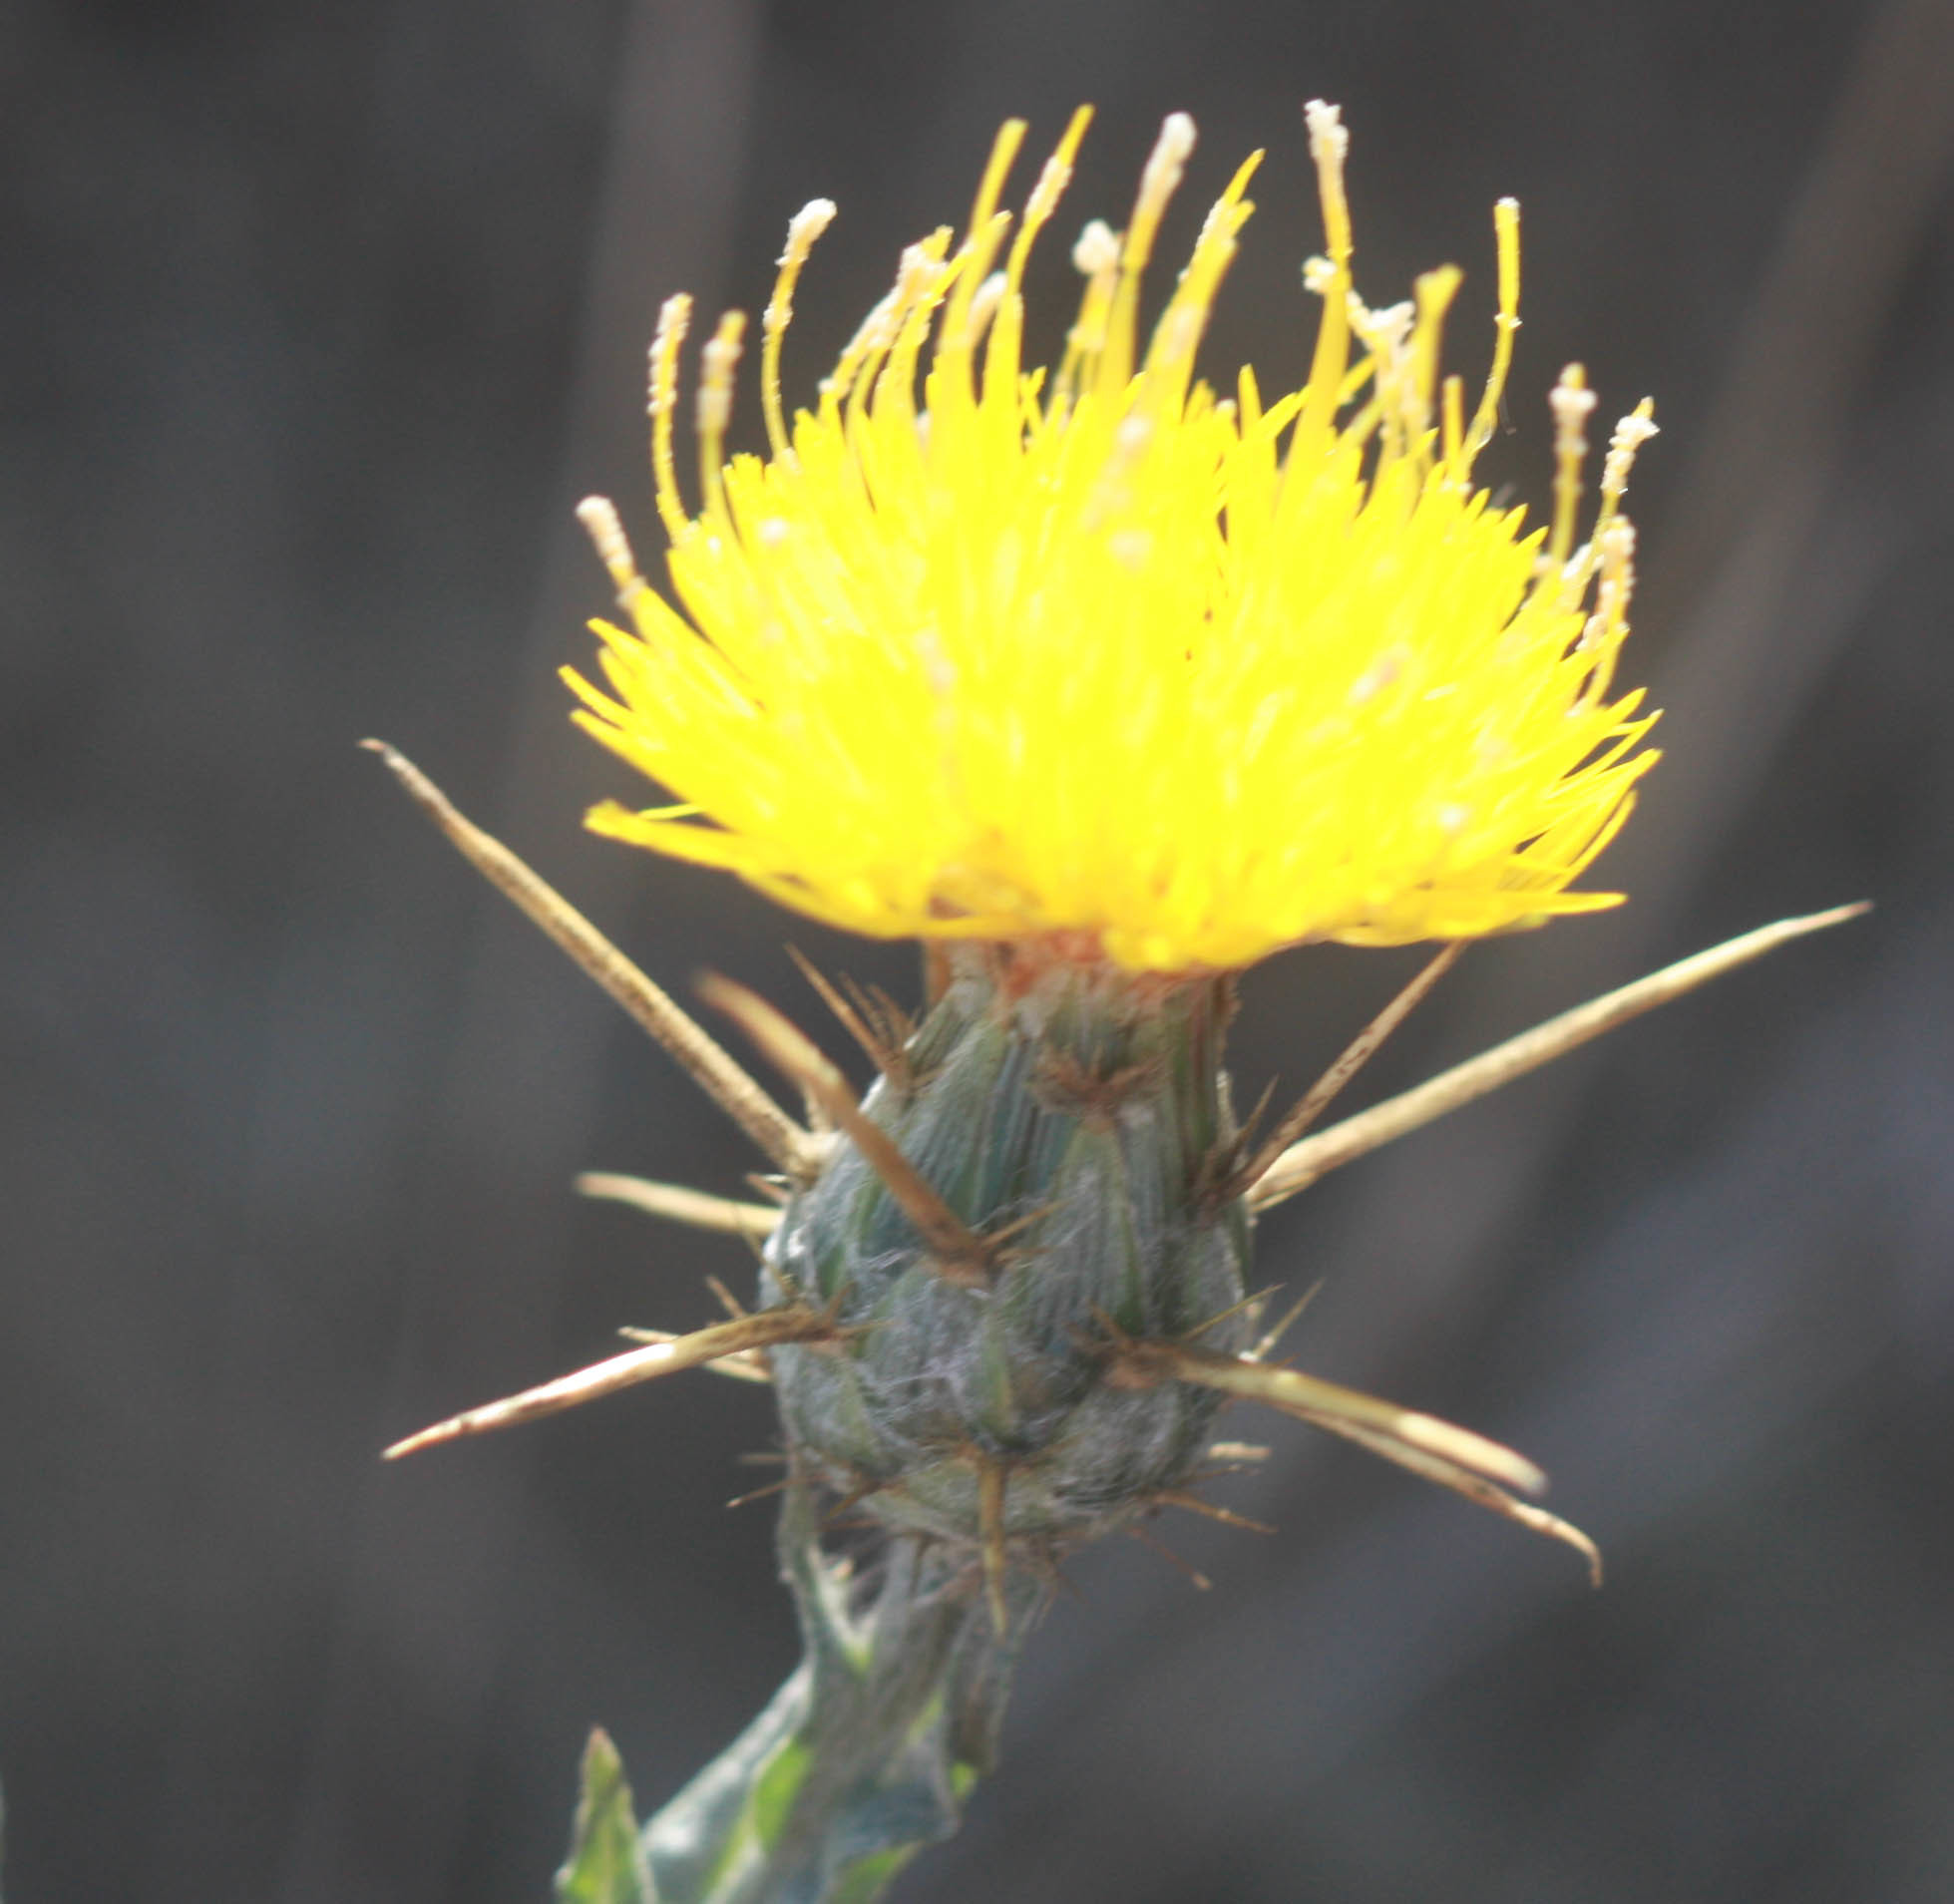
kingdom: Plantae
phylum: Tracheophyta
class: Magnoliopsida
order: Asterales
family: Asteraceae
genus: Centaurea
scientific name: Centaurea solstitialis
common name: Yellow star-thistle
